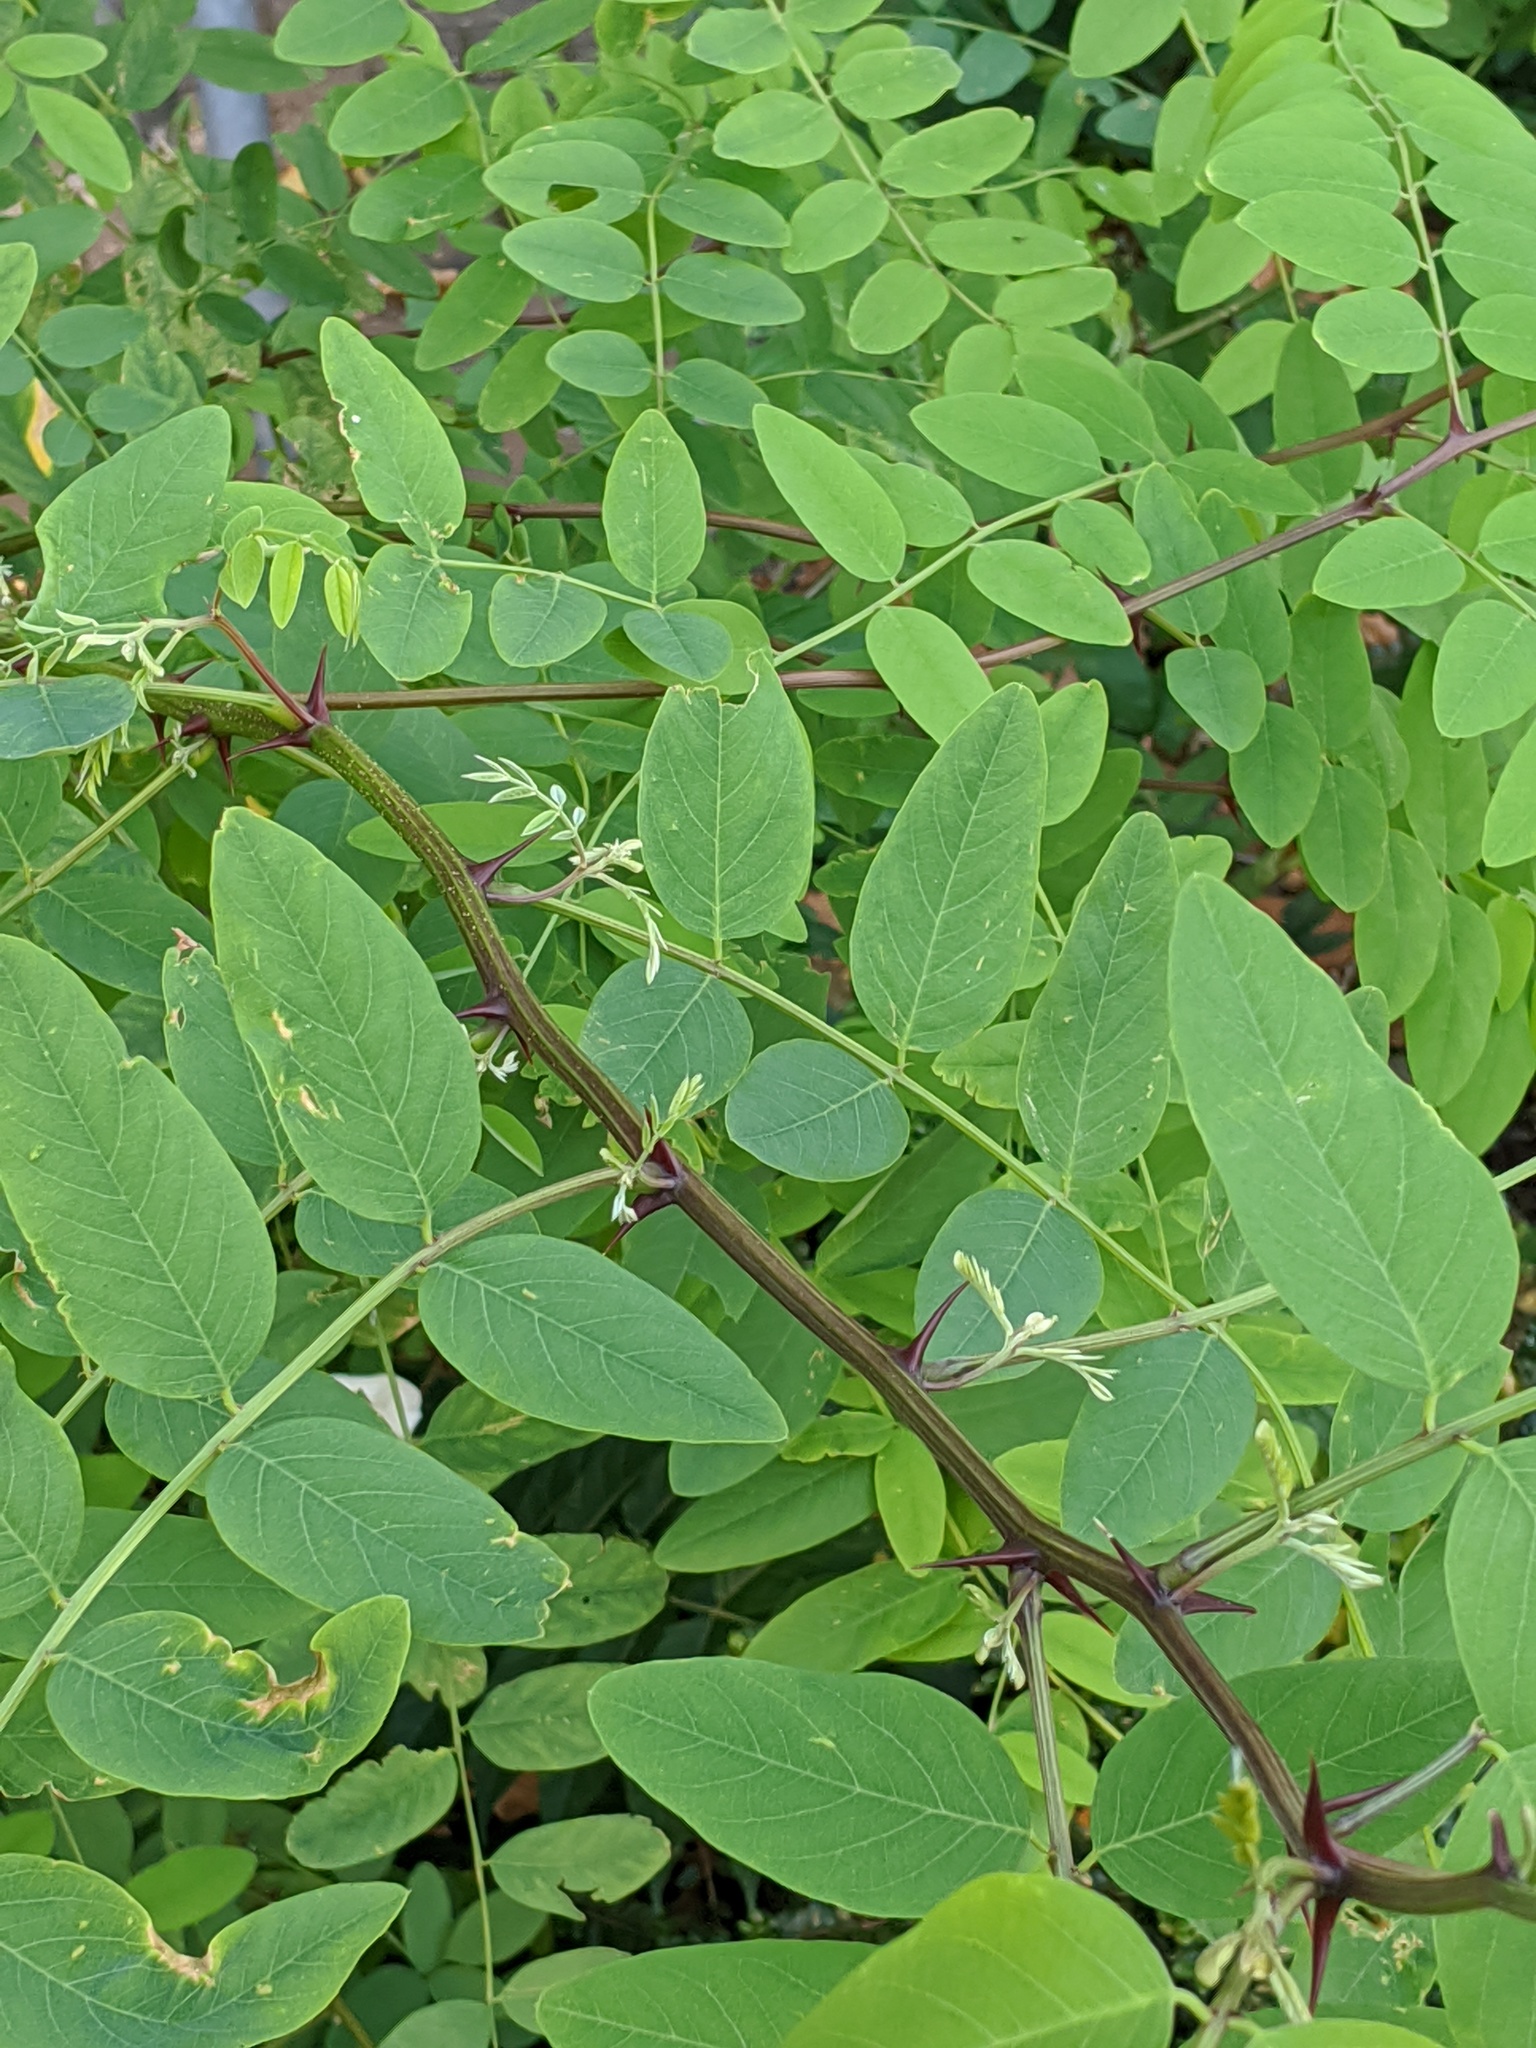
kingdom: Plantae
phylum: Tracheophyta
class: Magnoliopsida
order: Fabales
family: Fabaceae
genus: Robinia
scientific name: Robinia pseudoacacia
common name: Black locust
